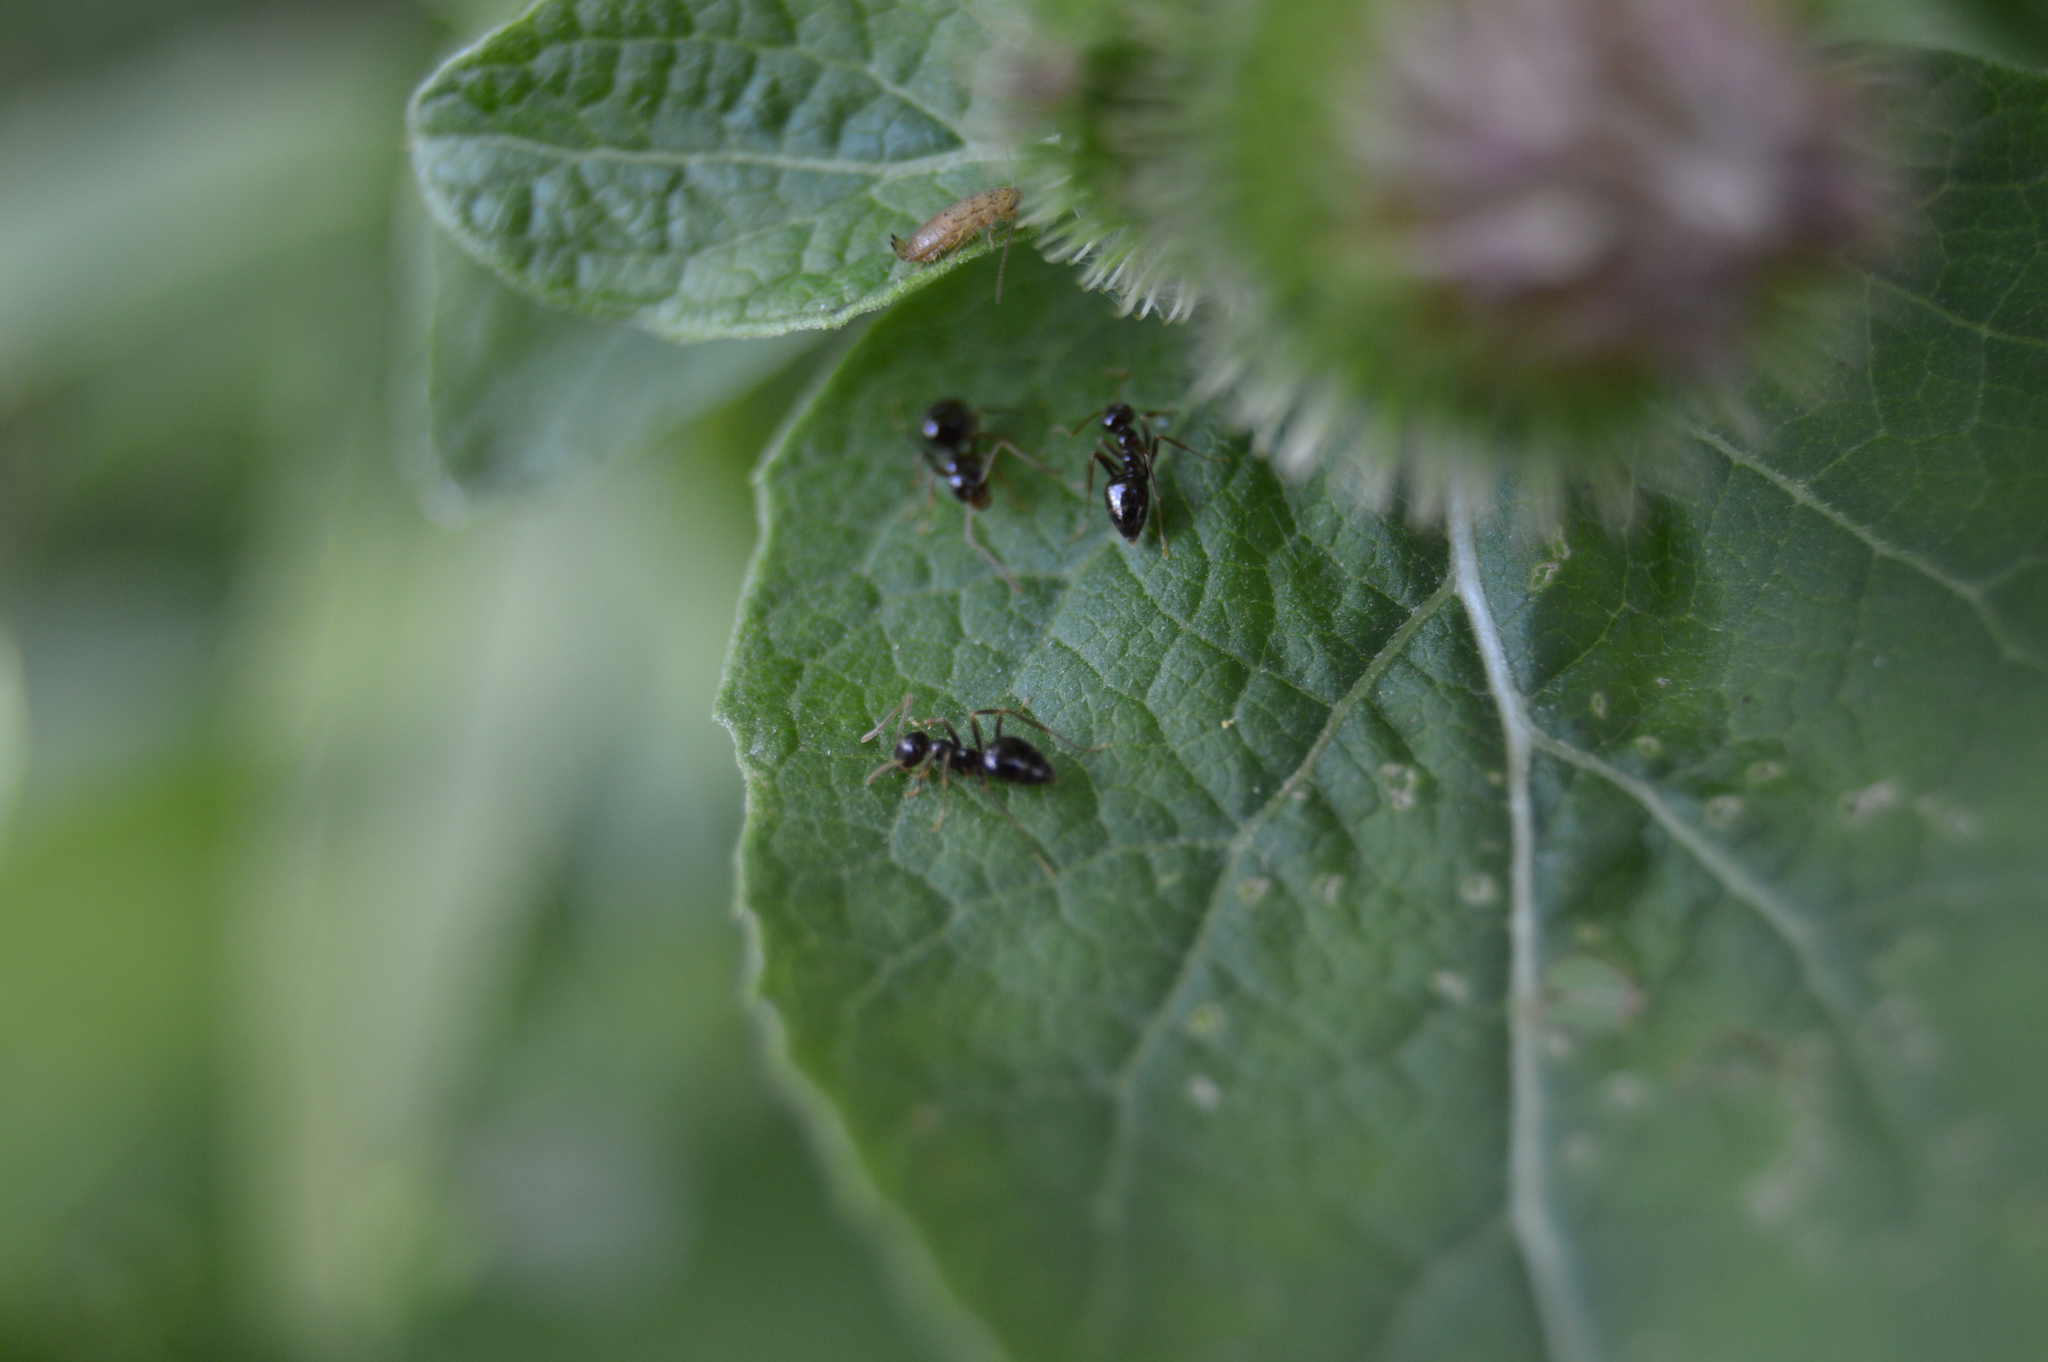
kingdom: Animalia
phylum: Arthropoda
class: Insecta
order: Hymenoptera
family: Formicidae
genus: Prenolepis
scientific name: Prenolepis imparis
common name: Small honey ant
